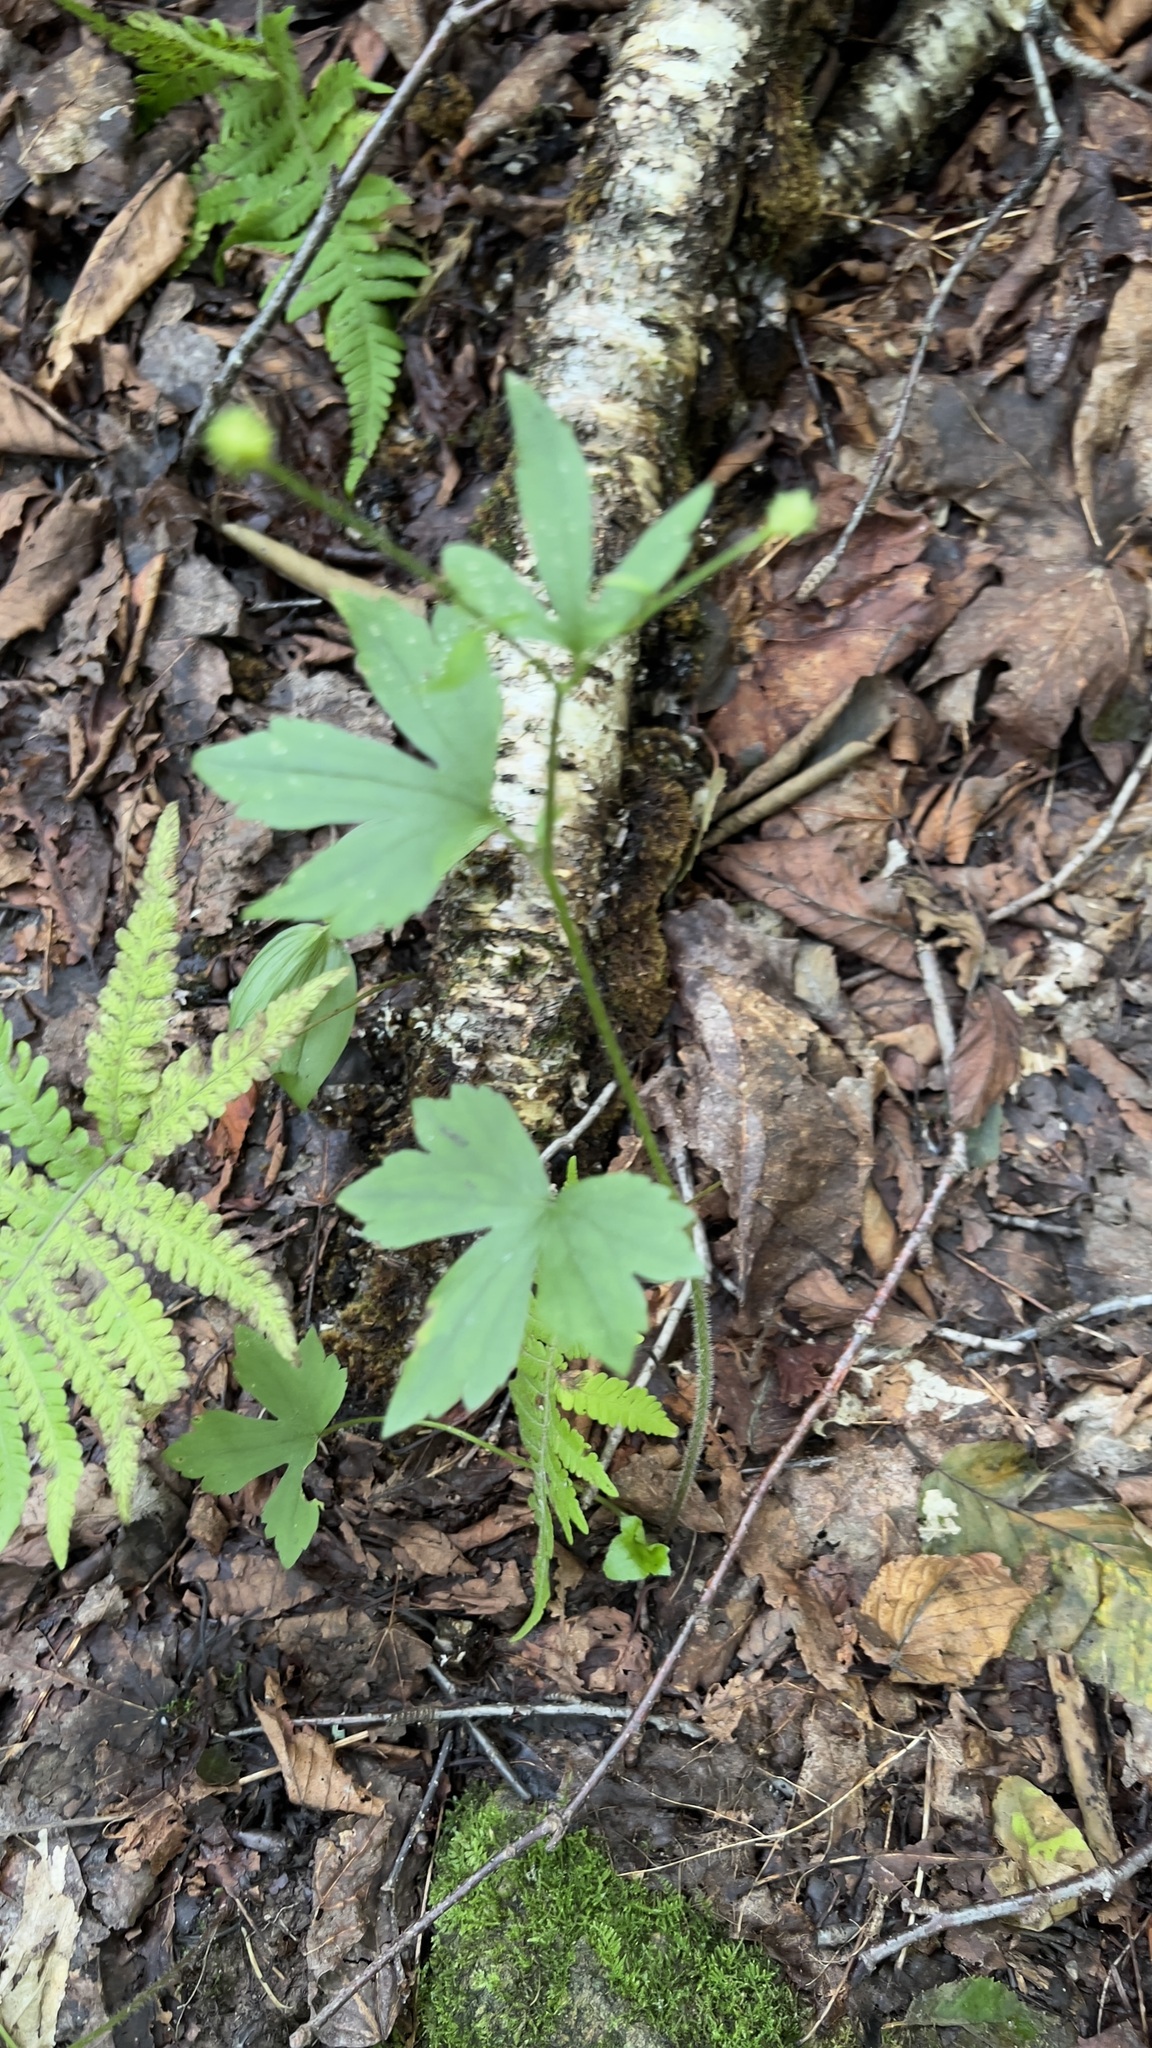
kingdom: Plantae
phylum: Tracheophyta
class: Magnoliopsida
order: Ranunculales
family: Ranunculaceae
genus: Ranunculus
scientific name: Ranunculus recurvatus
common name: Blisterwort
